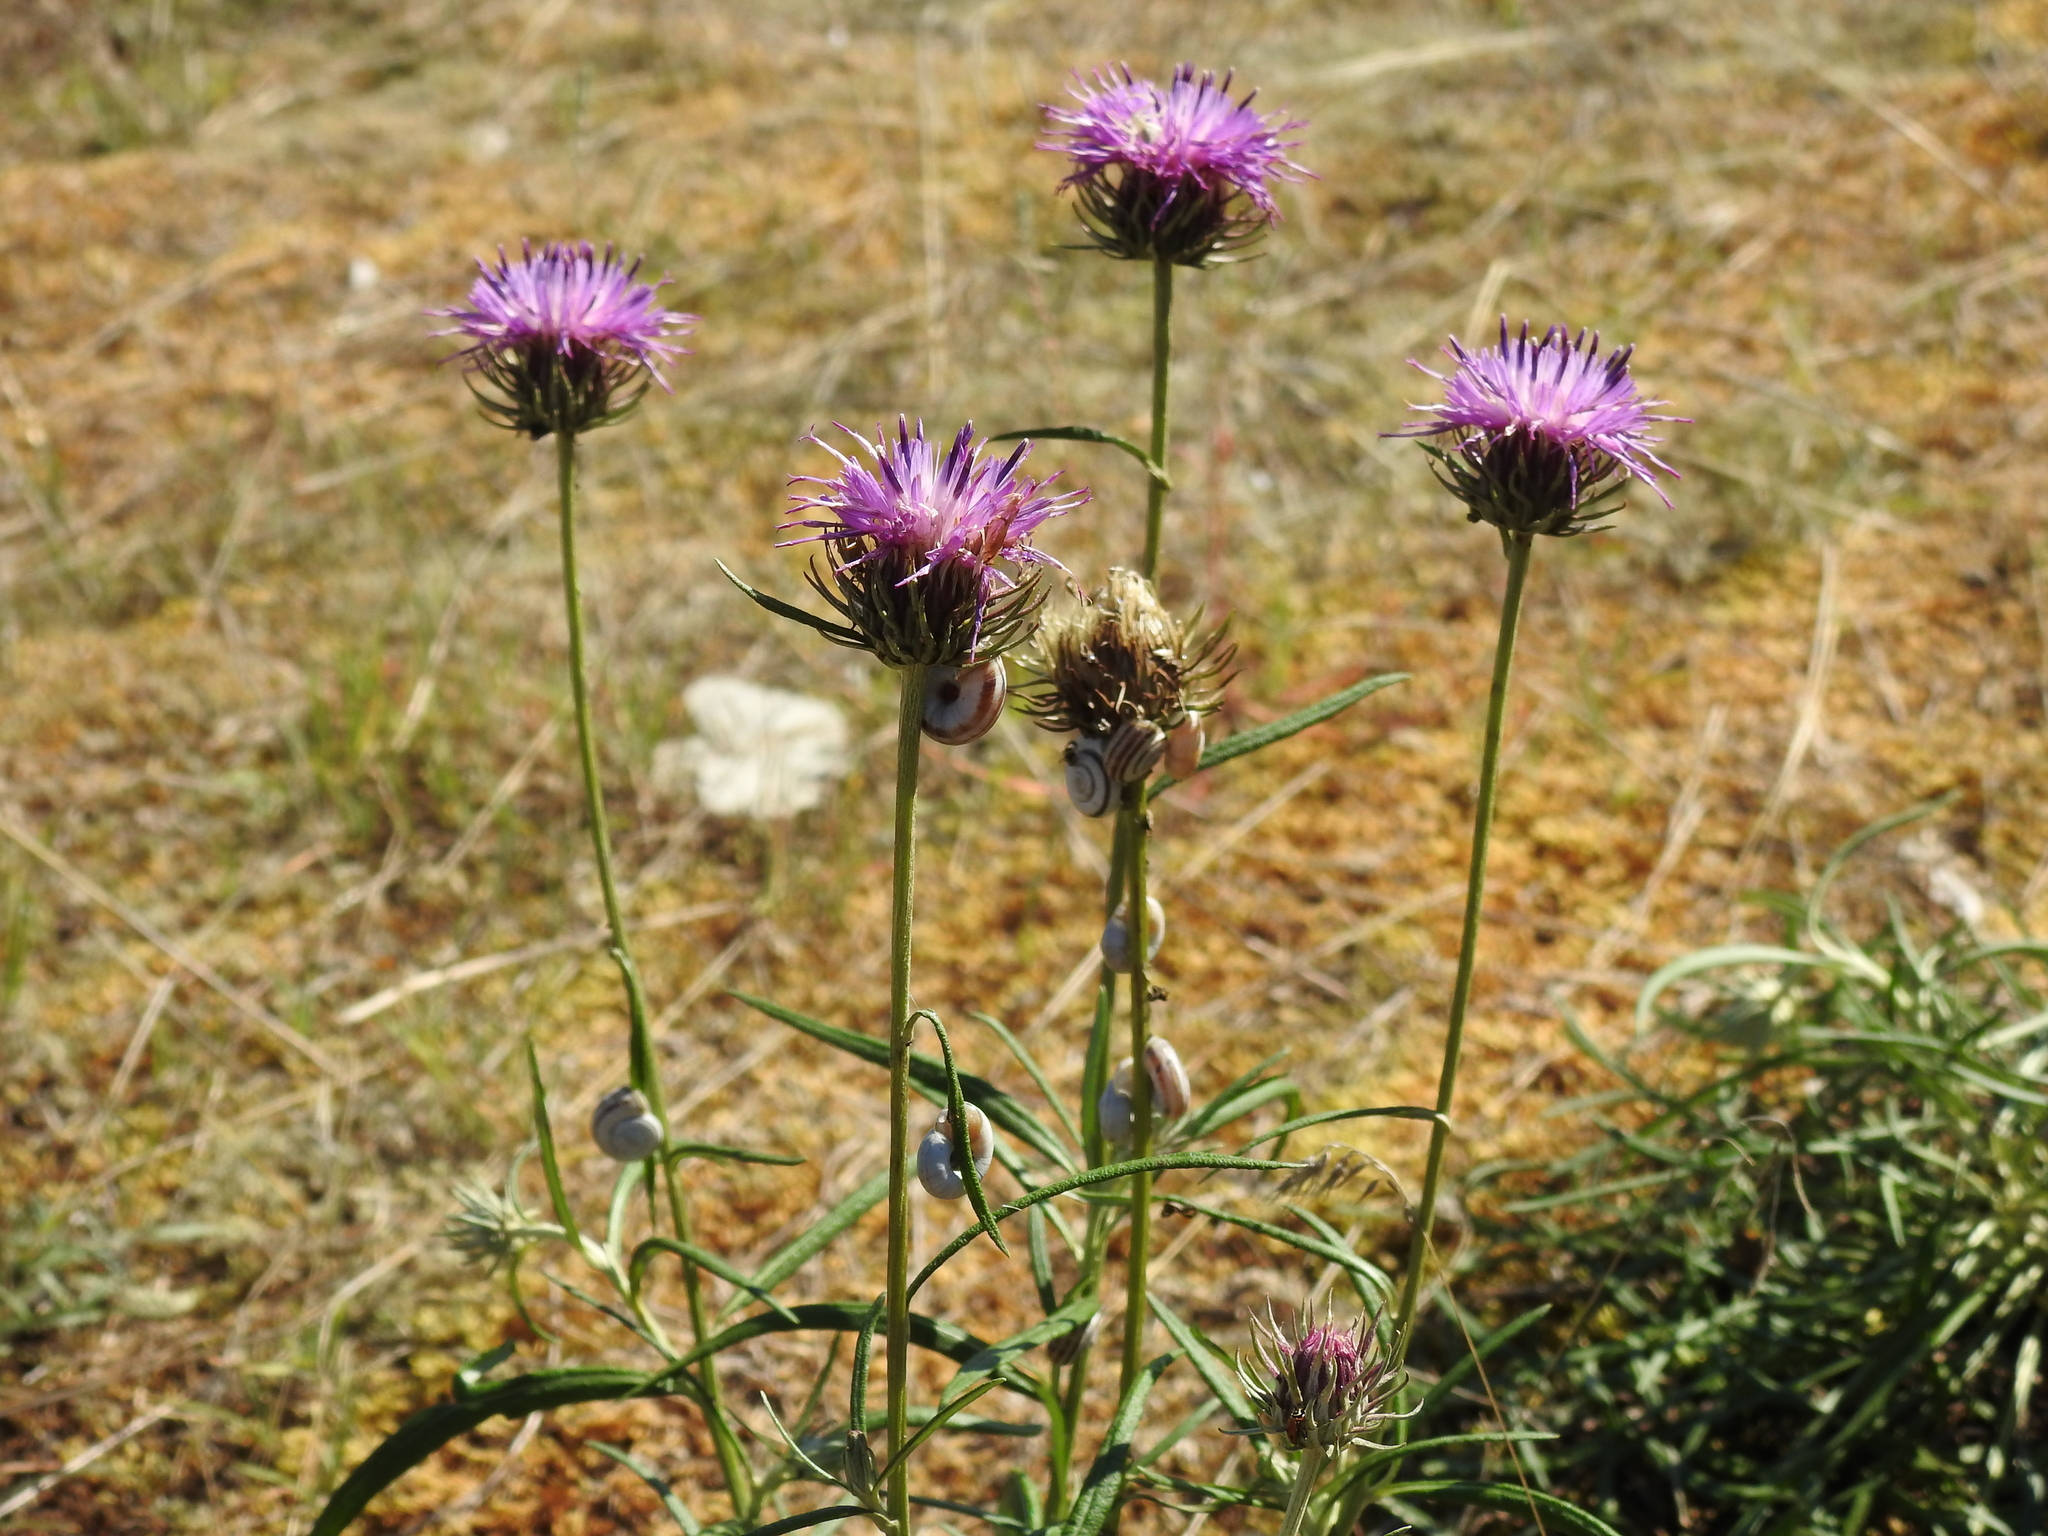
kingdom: Plantae
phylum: Tracheophyta
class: Magnoliopsida
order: Asterales
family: Asteraceae
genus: Jurinea
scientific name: Jurinea cyanoides
